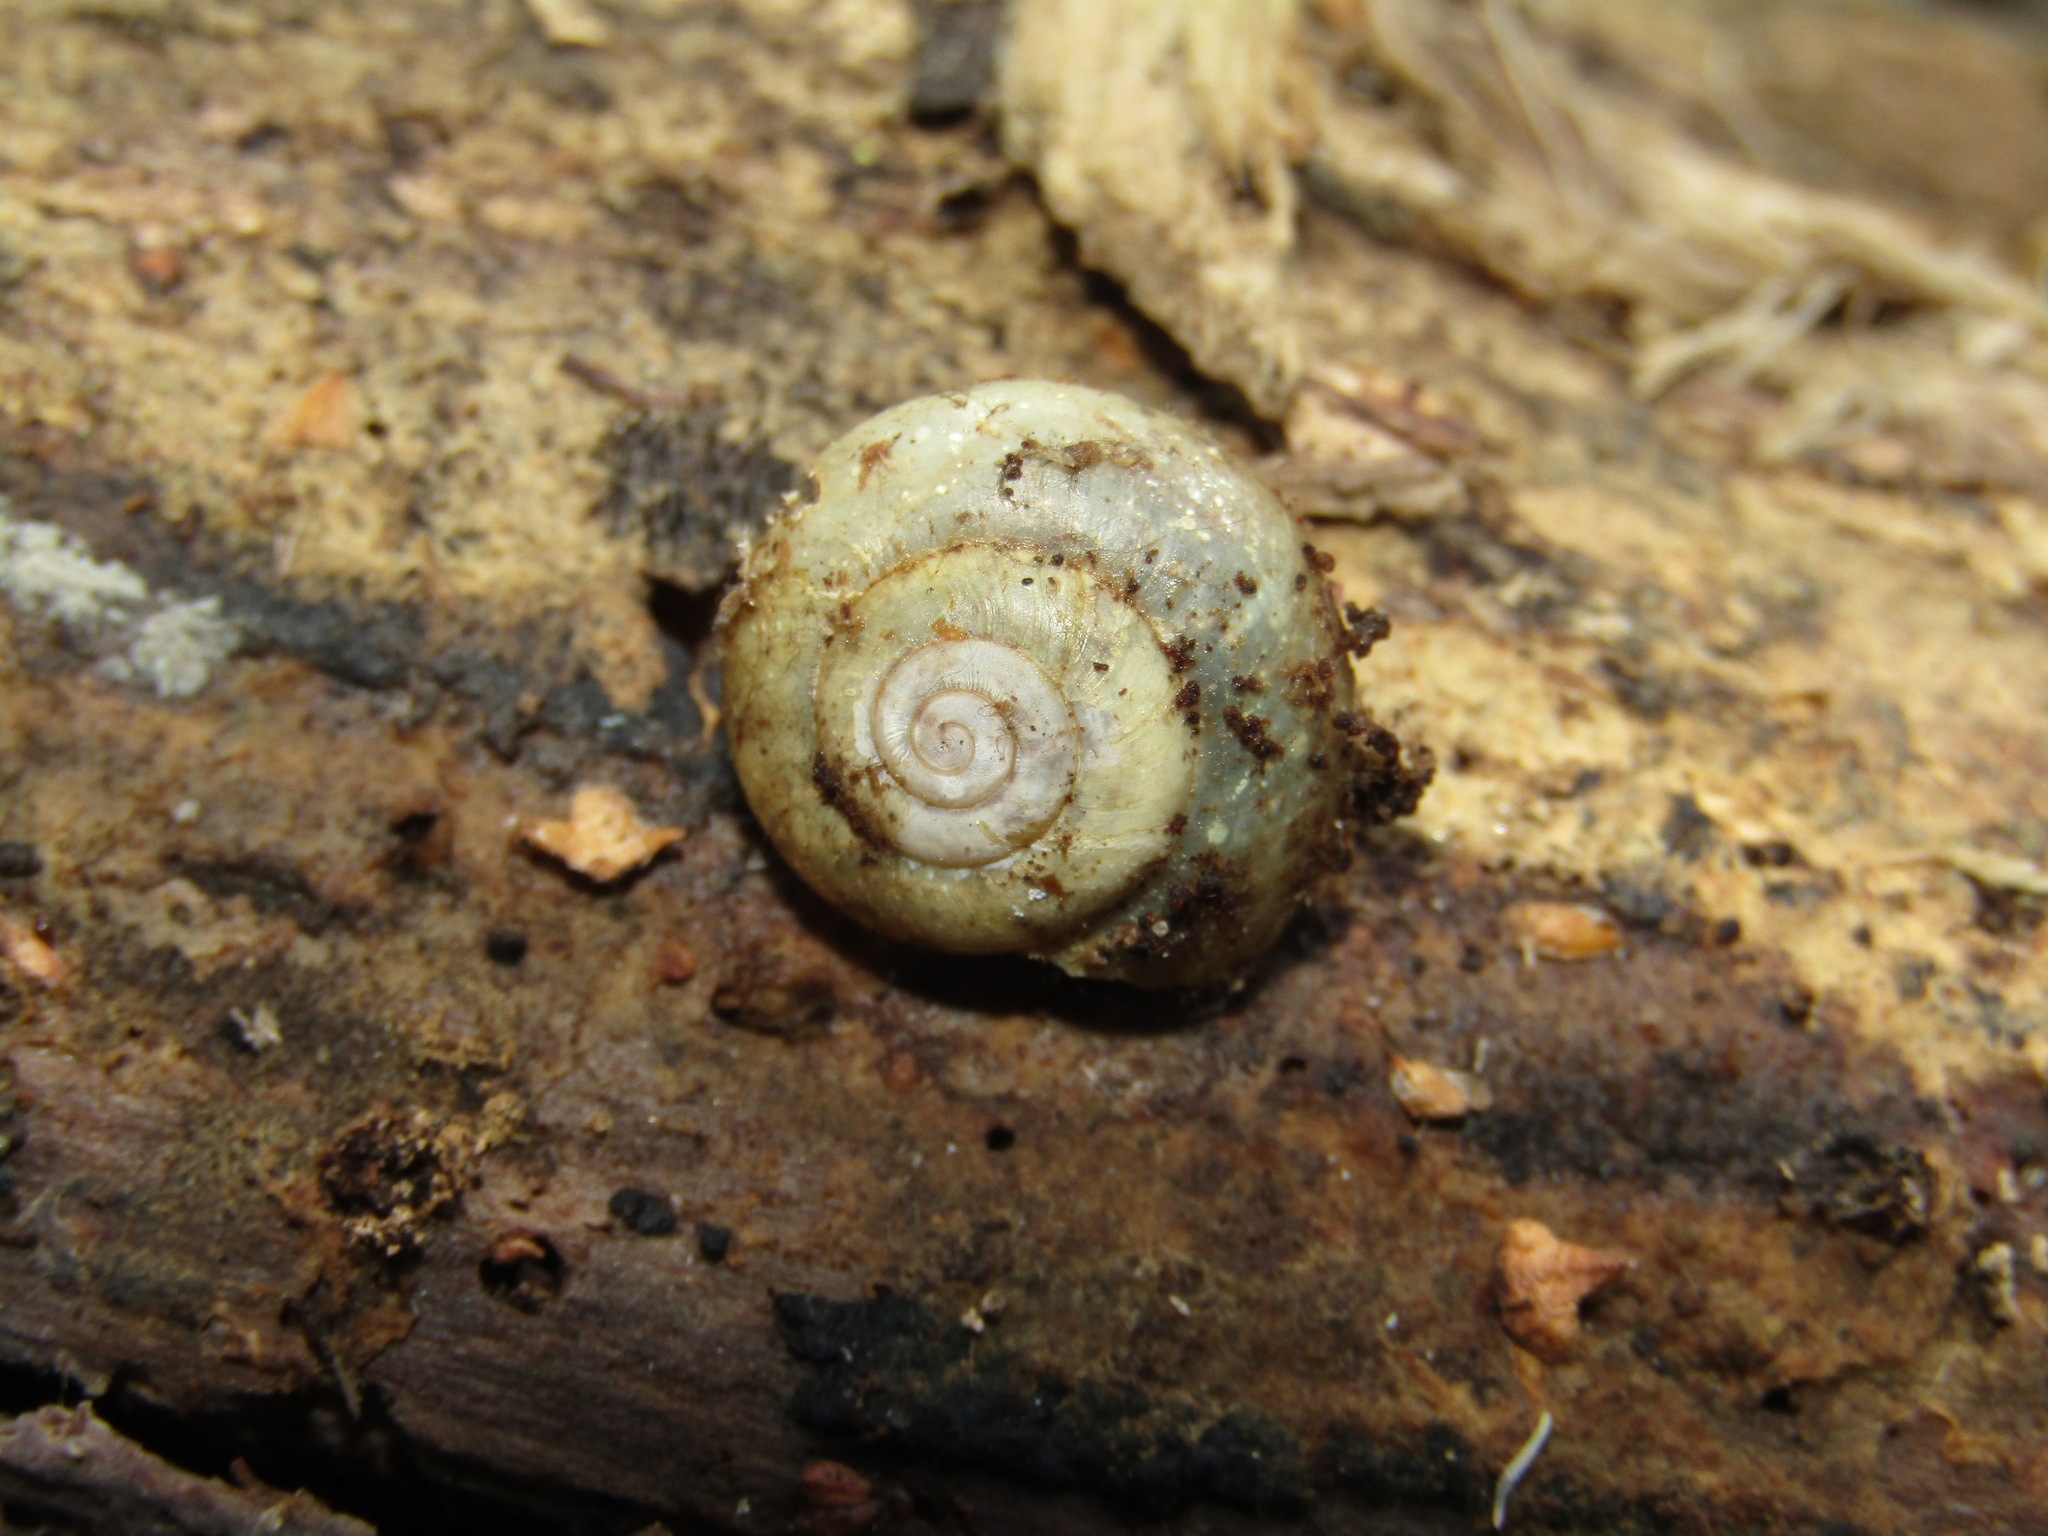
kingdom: Animalia
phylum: Mollusca
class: Gastropoda
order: Stylommatophora
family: Camaenidae
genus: Fruticicola
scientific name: Fruticicola fruticum
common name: Bush snail
